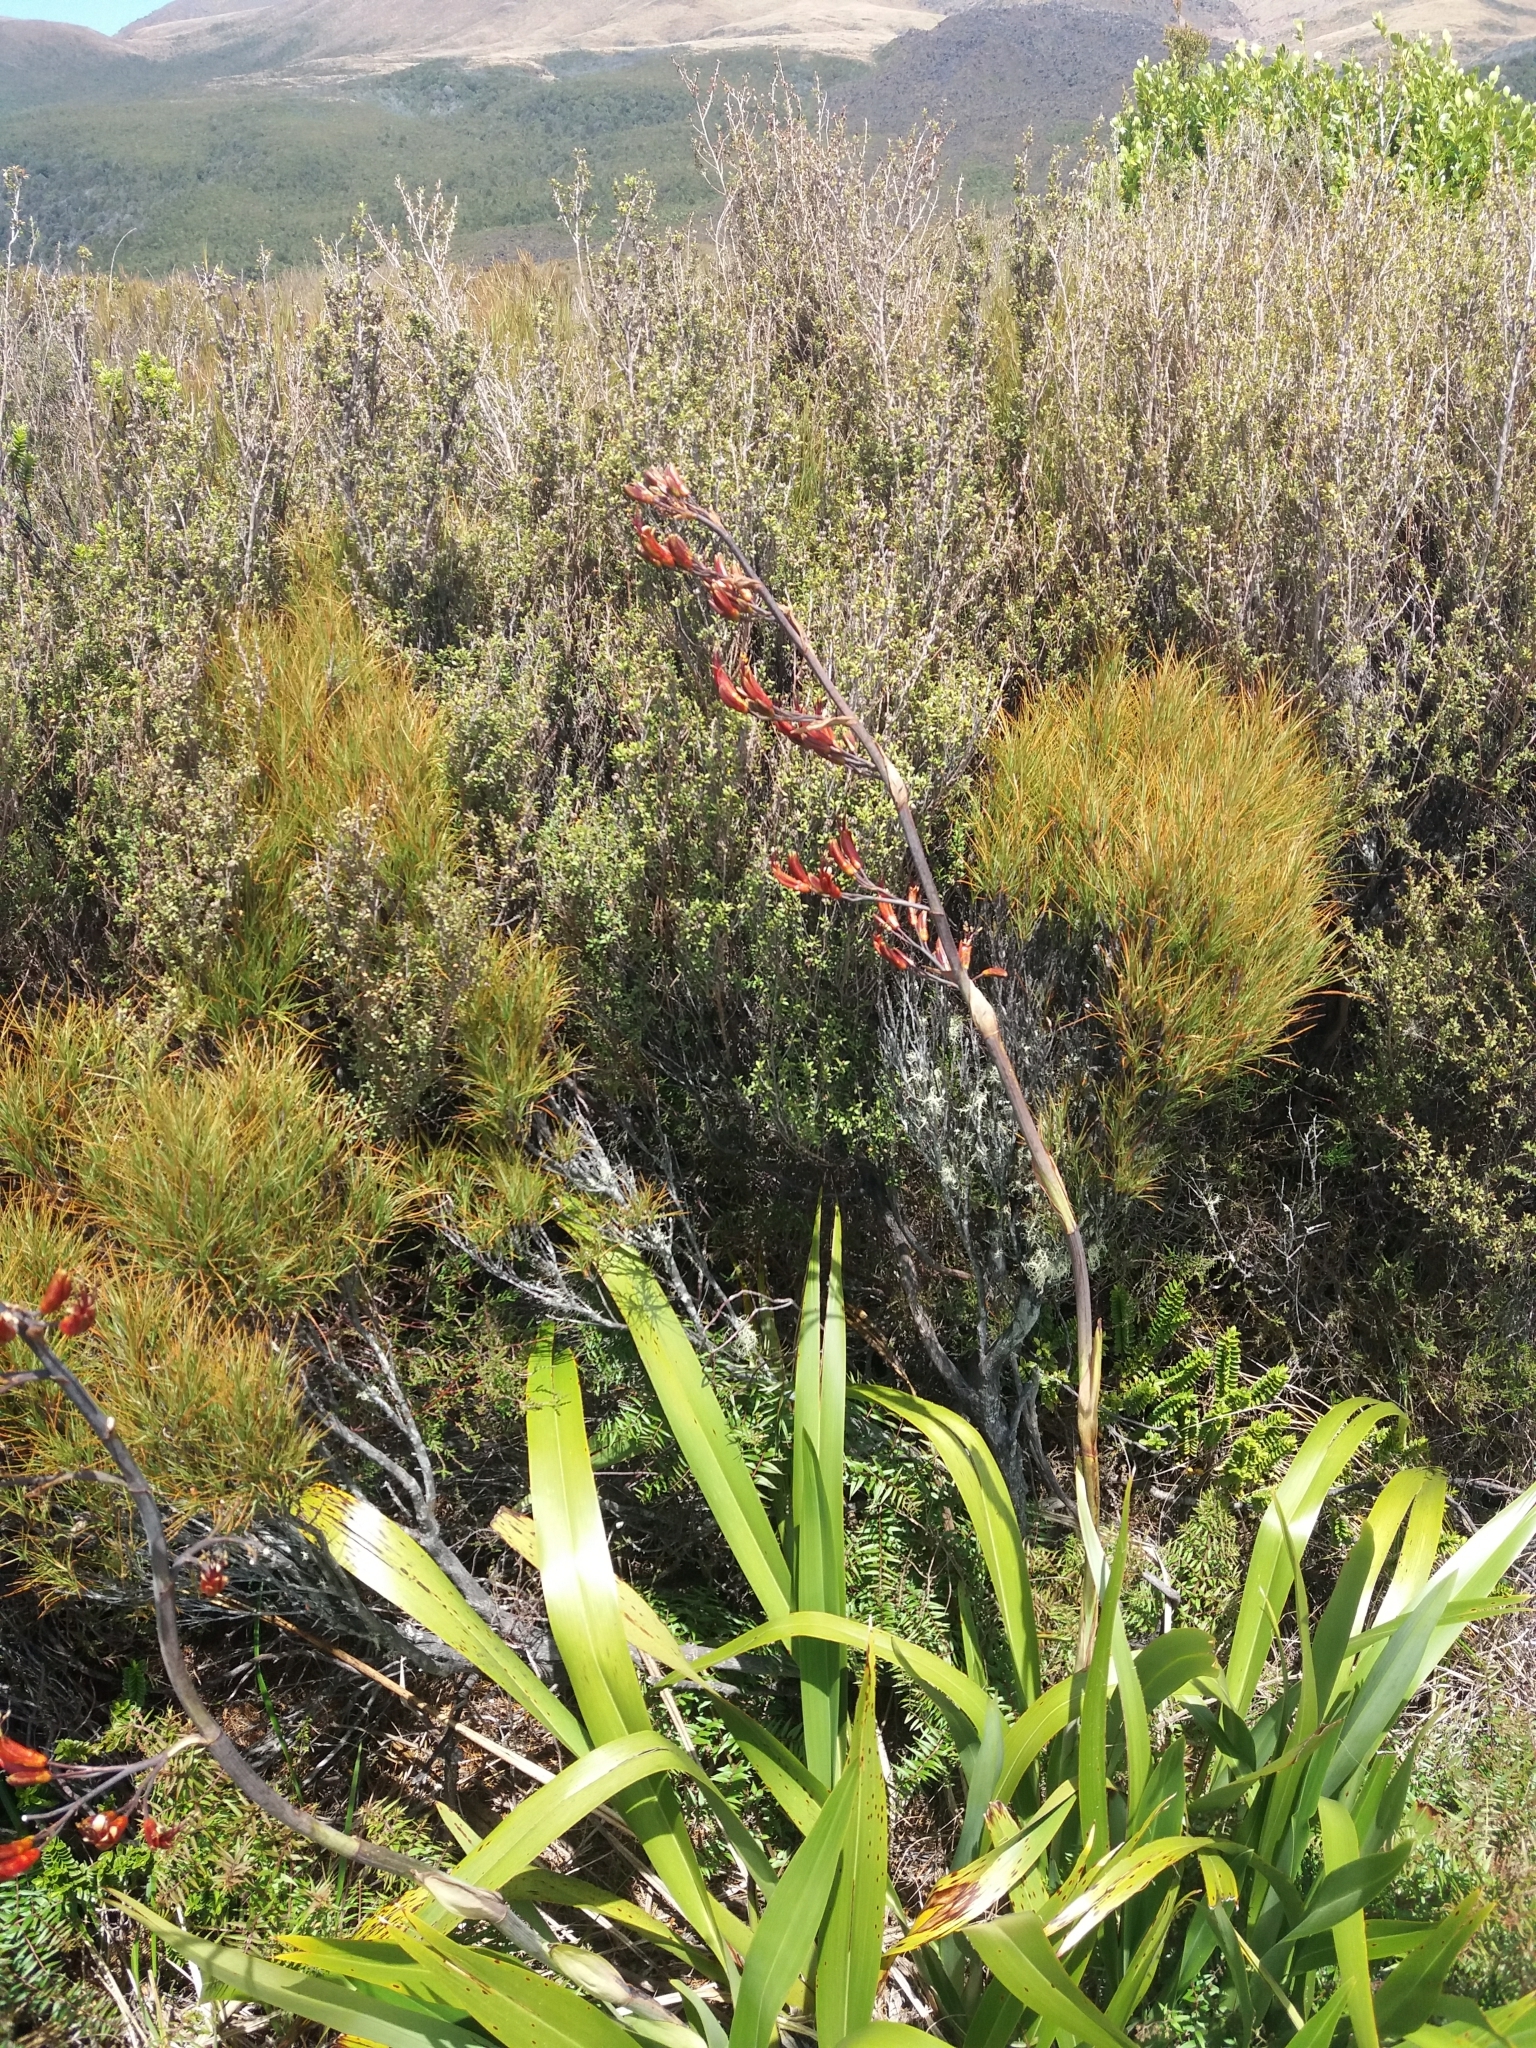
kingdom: Plantae
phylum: Tracheophyta
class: Liliopsida
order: Asparagales
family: Asphodelaceae
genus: Phormium
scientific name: Phormium colensoi
